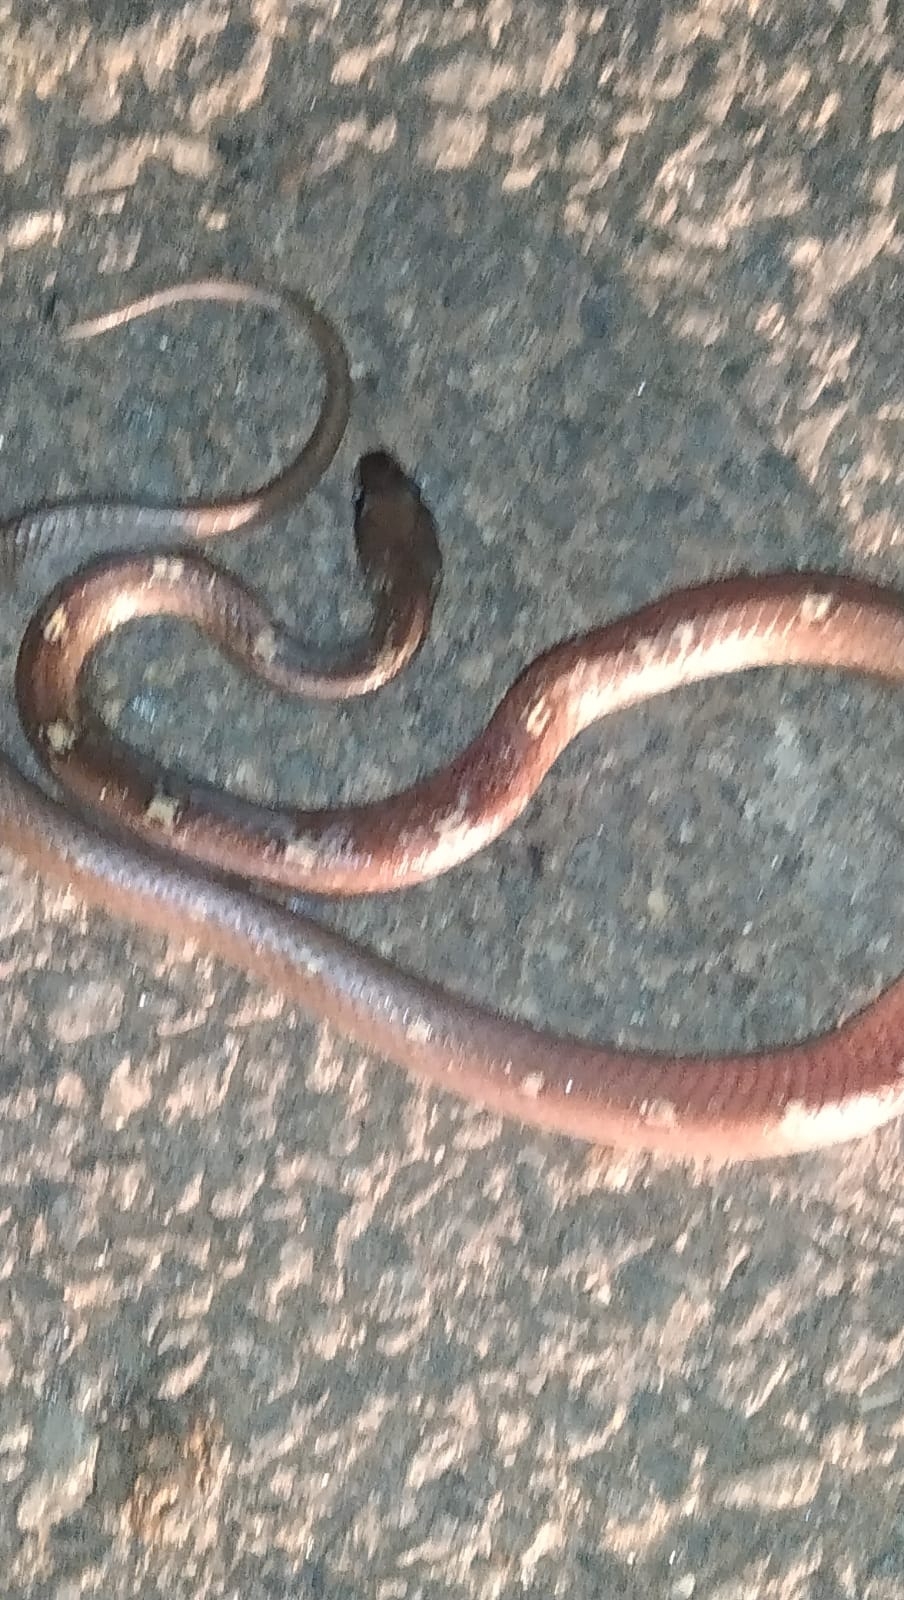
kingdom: Animalia
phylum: Chordata
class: Squamata
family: Colubridae
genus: Lycodon
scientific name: Lycodon fasciolatus
